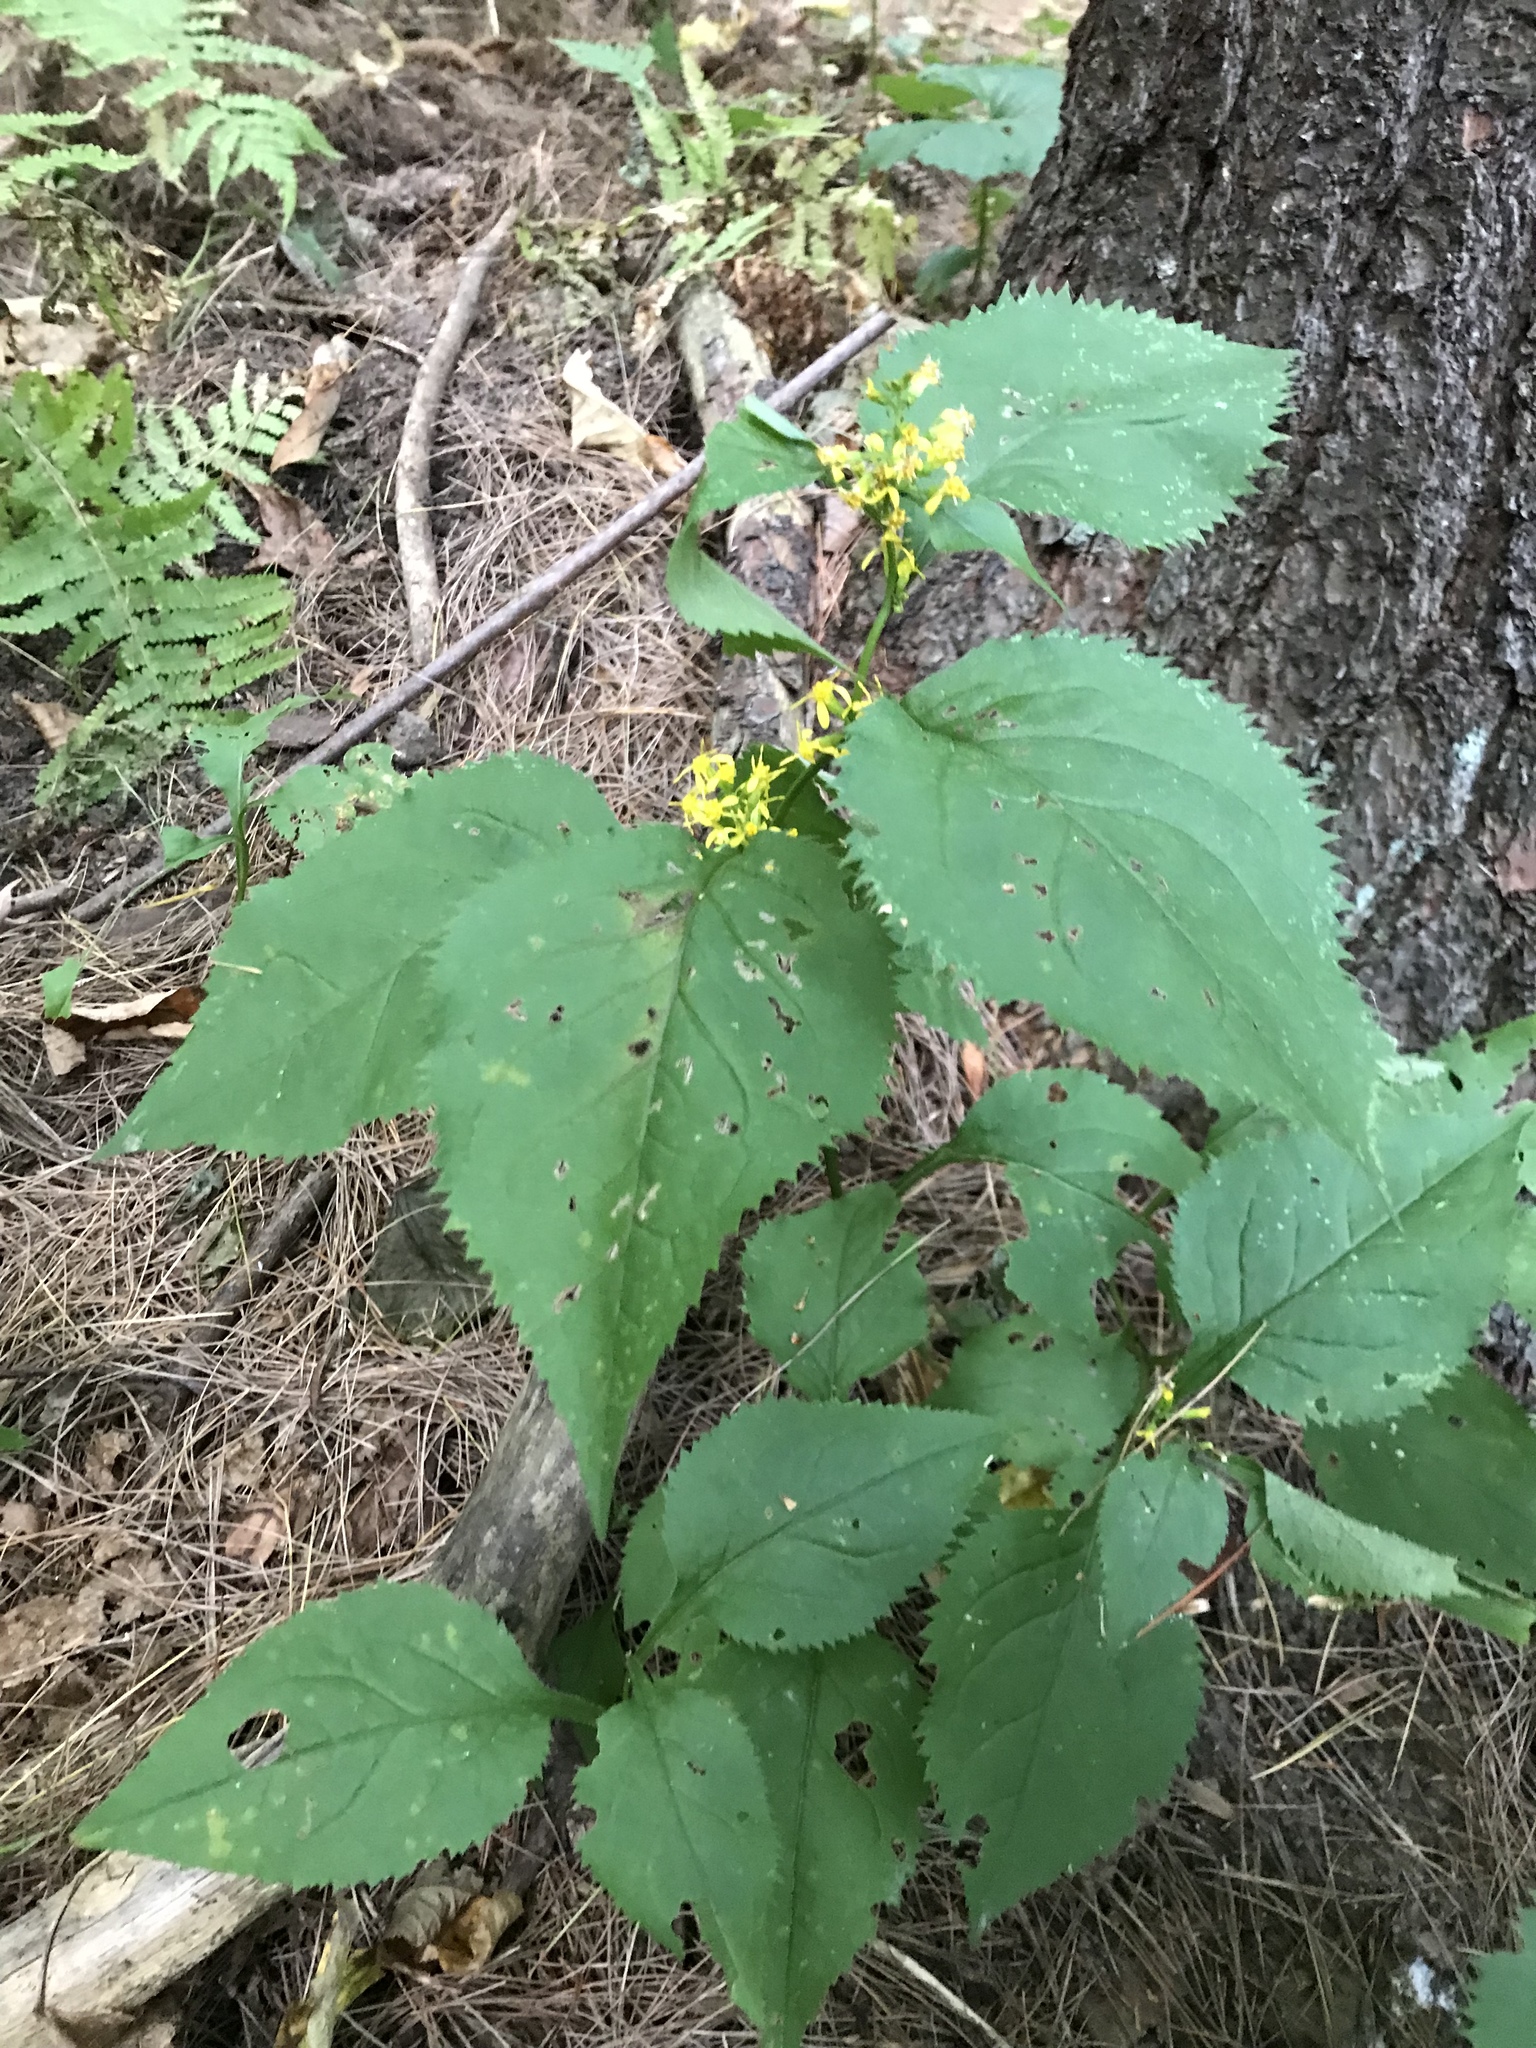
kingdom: Plantae
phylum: Tracheophyta
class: Magnoliopsida
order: Asterales
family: Asteraceae
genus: Solidago
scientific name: Solidago flexicaulis
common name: Zig-zag goldenrod
